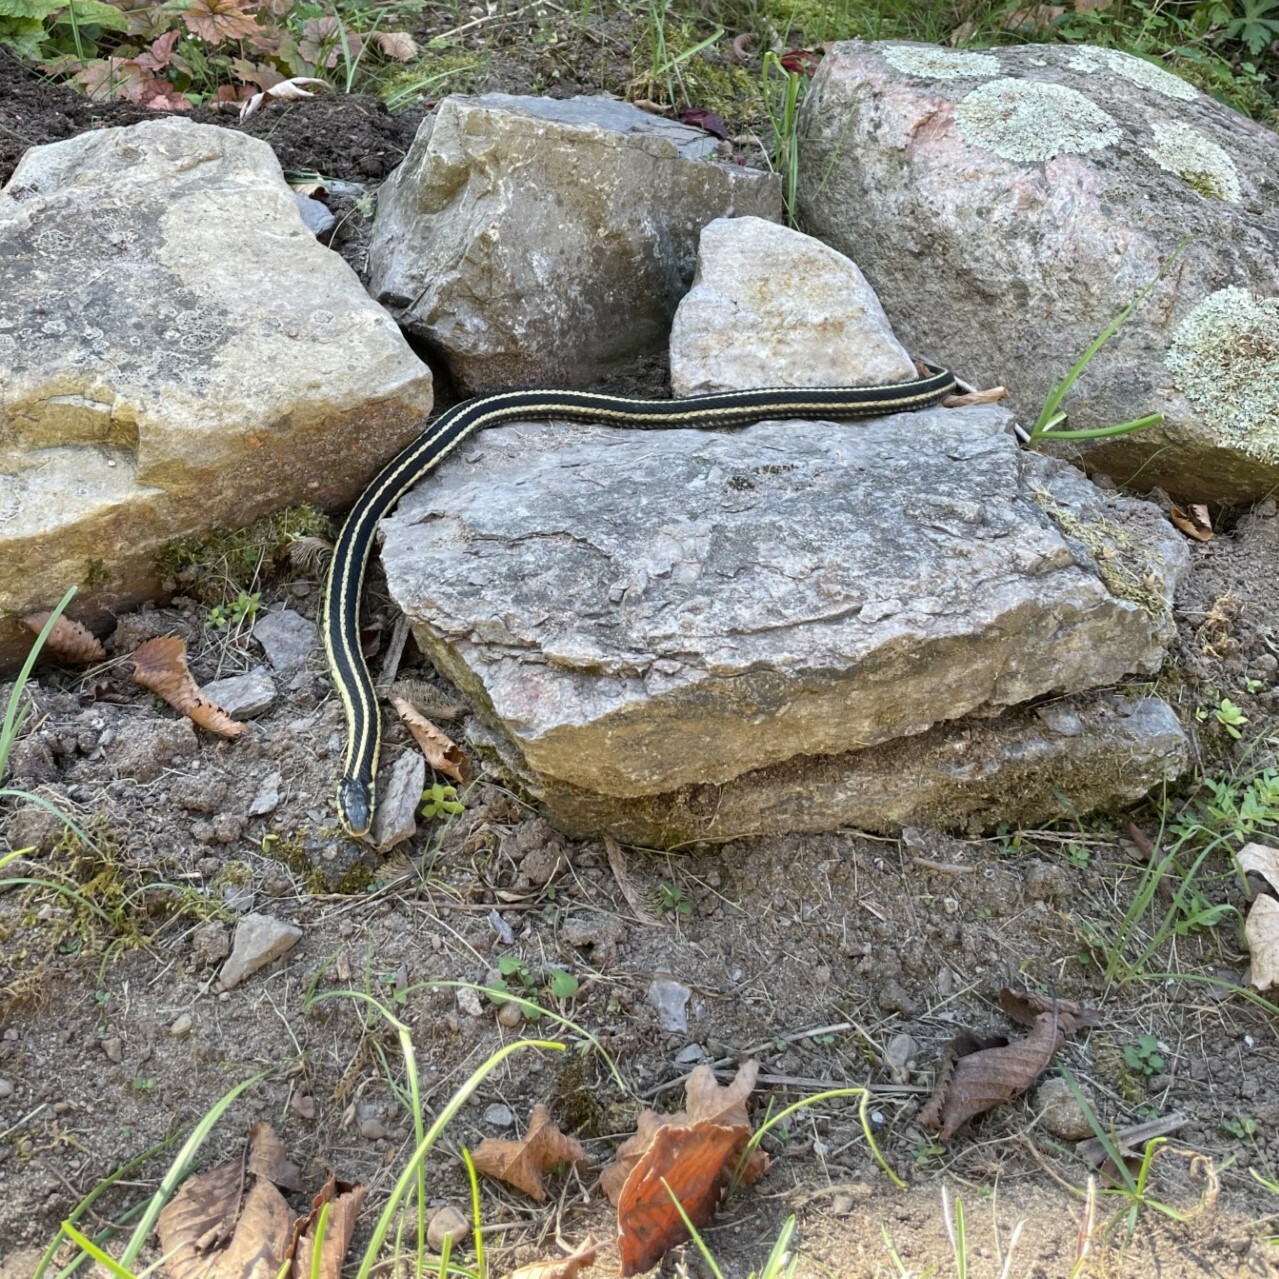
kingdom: Animalia
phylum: Chordata
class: Squamata
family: Colubridae
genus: Thamnophis
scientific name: Thamnophis sirtalis
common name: Common garter snake
